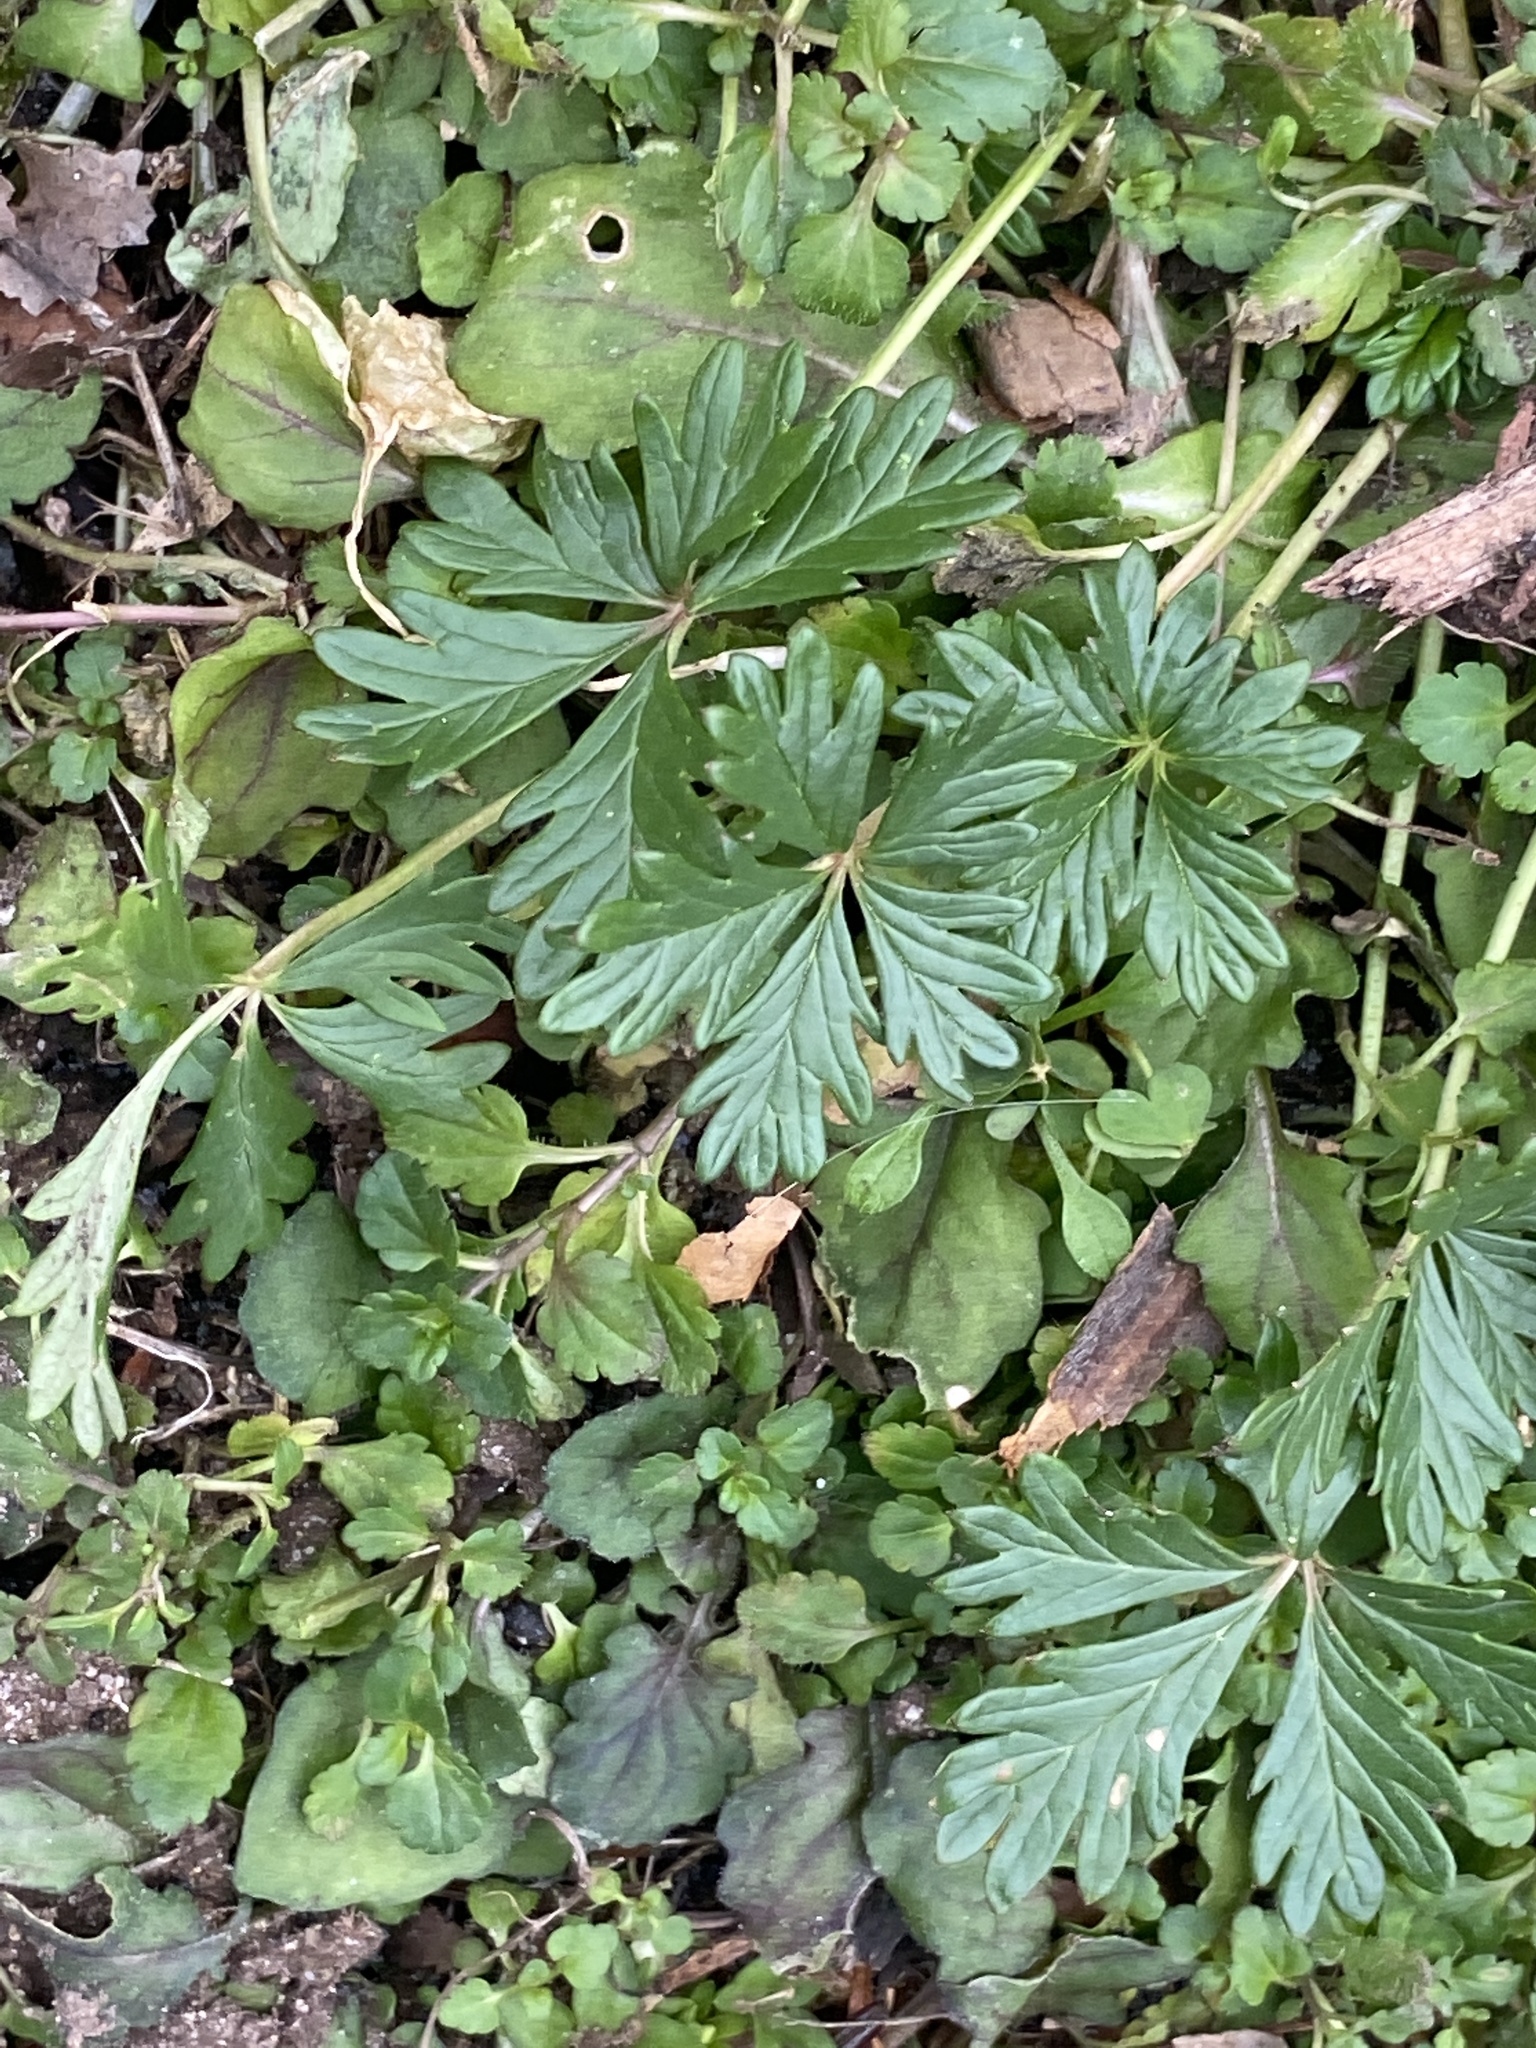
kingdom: Plantae
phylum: Tracheophyta
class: Magnoliopsida
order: Rosales
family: Rosaceae
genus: Potentilla
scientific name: Potentilla argentea
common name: Hoary cinquefoil
